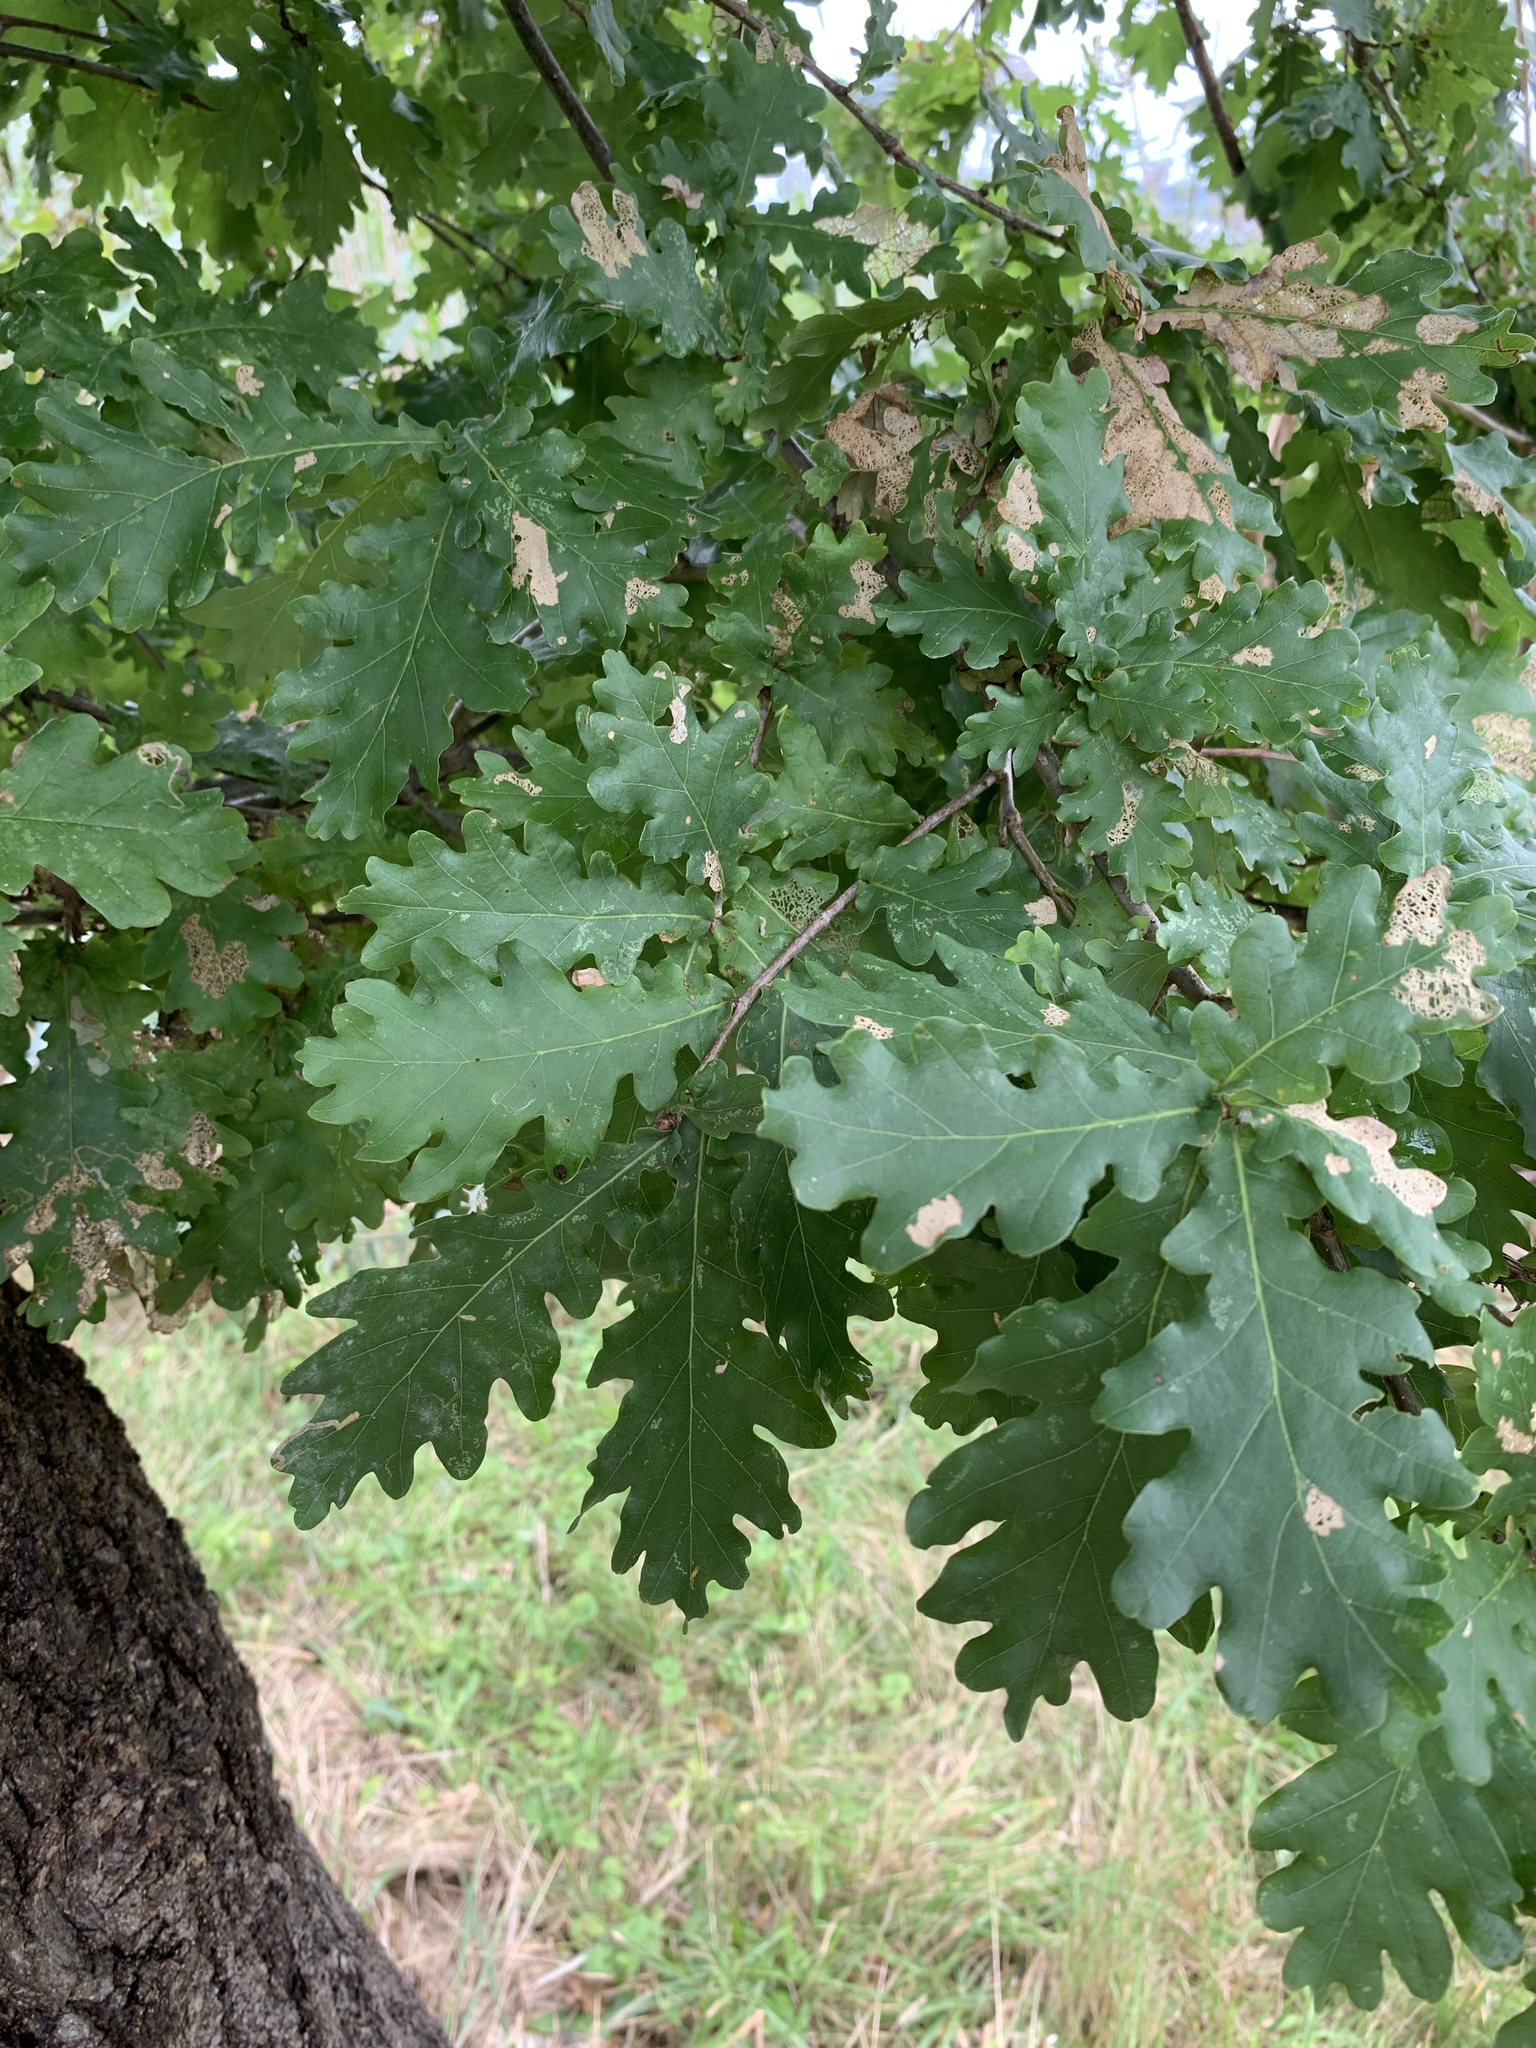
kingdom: Plantae
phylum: Tracheophyta
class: Magnoliopsida
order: Fagales
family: Fagaceae
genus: Quercus
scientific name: Quercus robur
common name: Pedunculate oak
